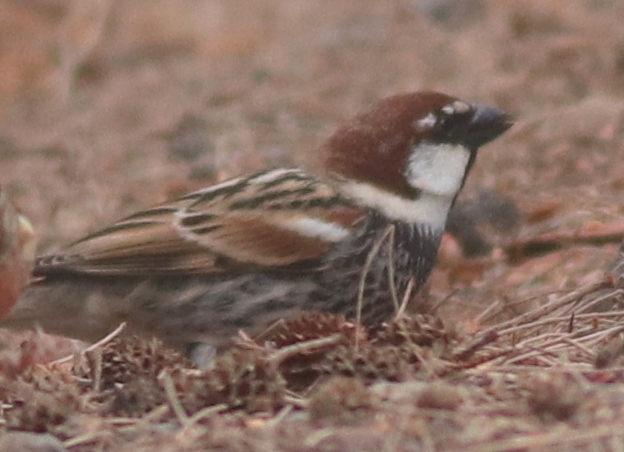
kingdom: Animalia
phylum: Chordata
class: Aves
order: Passeriformes
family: Passeridae
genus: Passer
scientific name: Passer hispaniolensis
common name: Spanish sparrow
